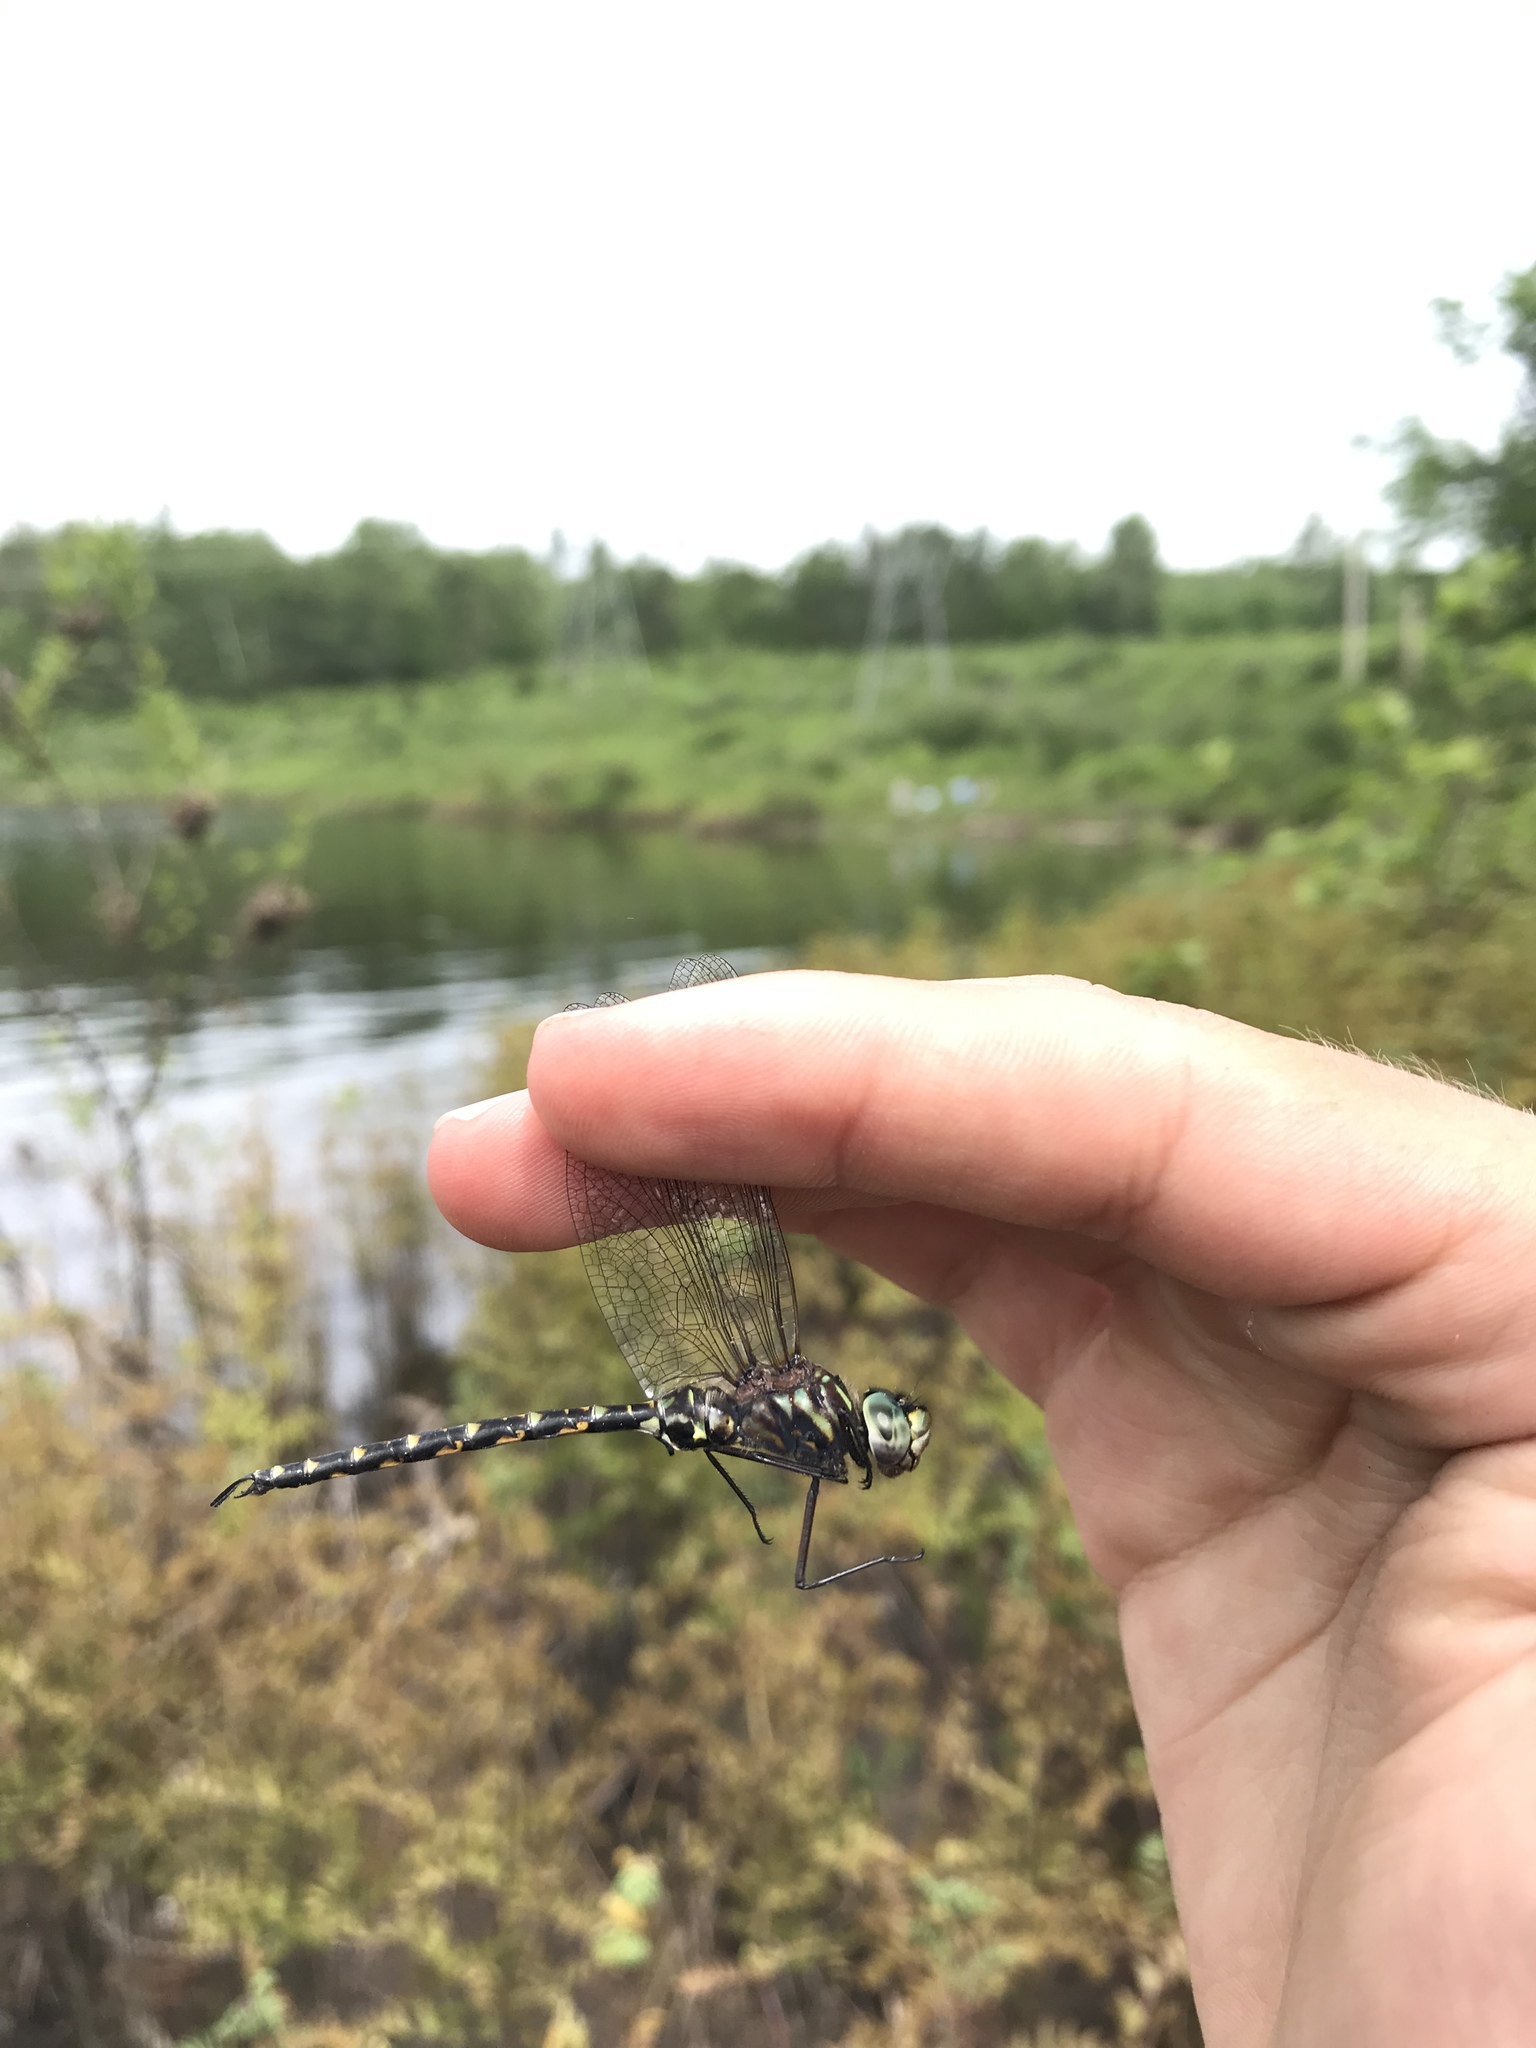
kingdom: Animalia
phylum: Arthropoda
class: Insecta
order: Odonata
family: Aeshnidae
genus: Gomphaeschna
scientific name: Gomphaeschna furcillata
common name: Harlequin darner
